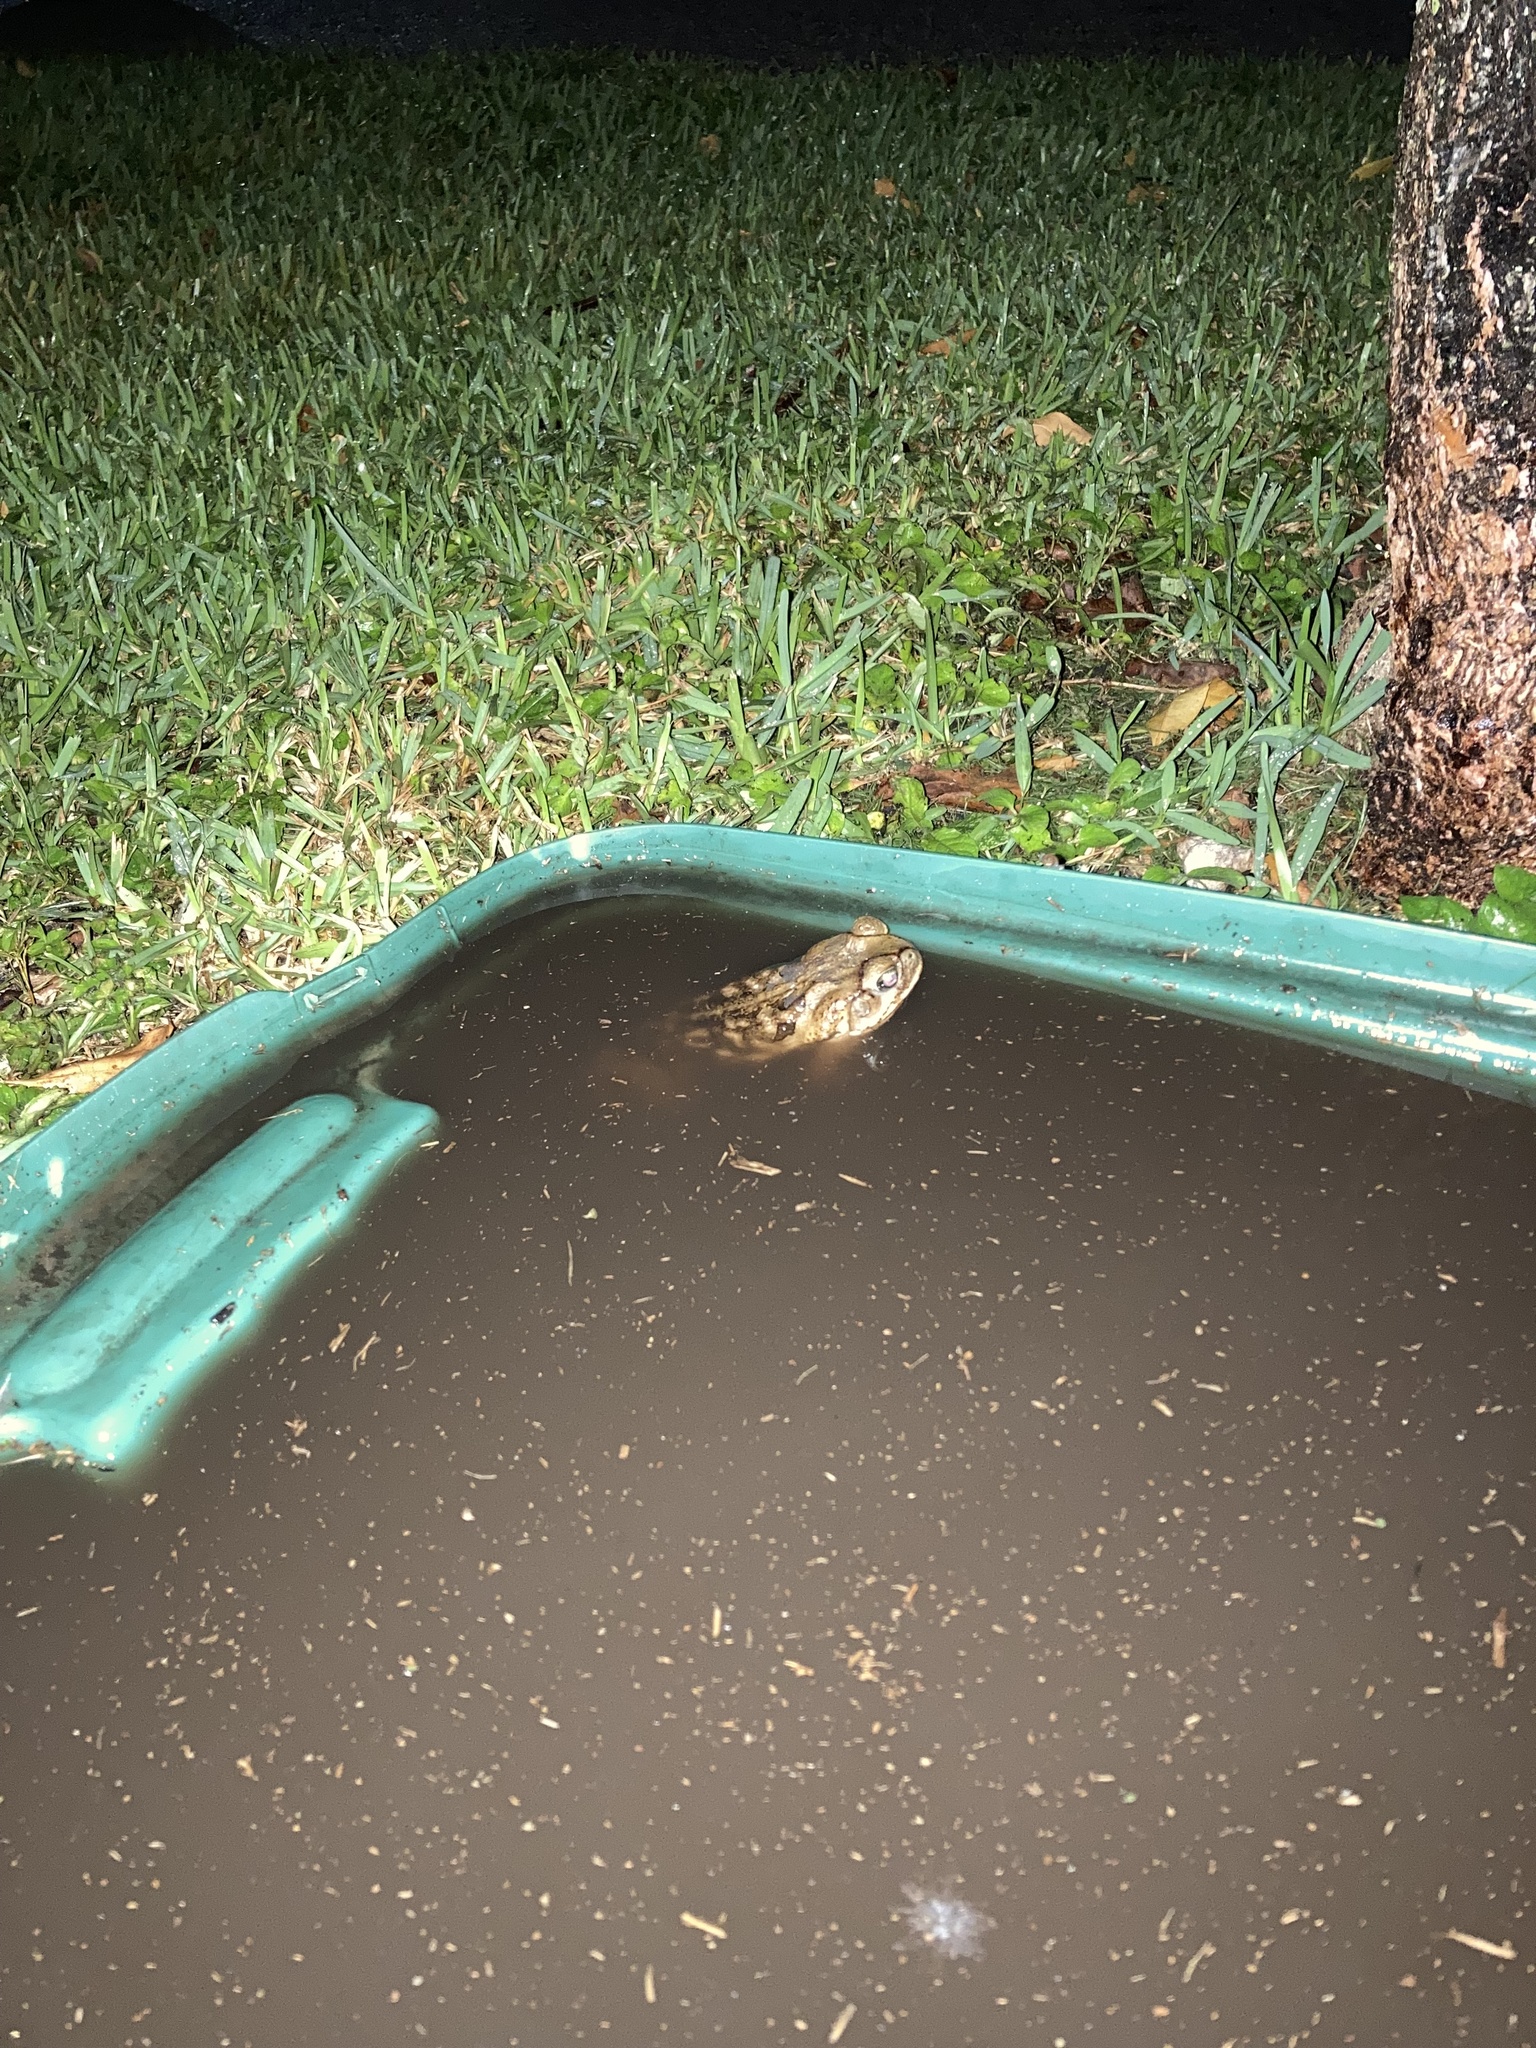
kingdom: Animalia
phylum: Chordata
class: Amphibia
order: Anura
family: Bufonidae
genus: Rhinella
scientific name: Rhinella marina
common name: Cane toad
